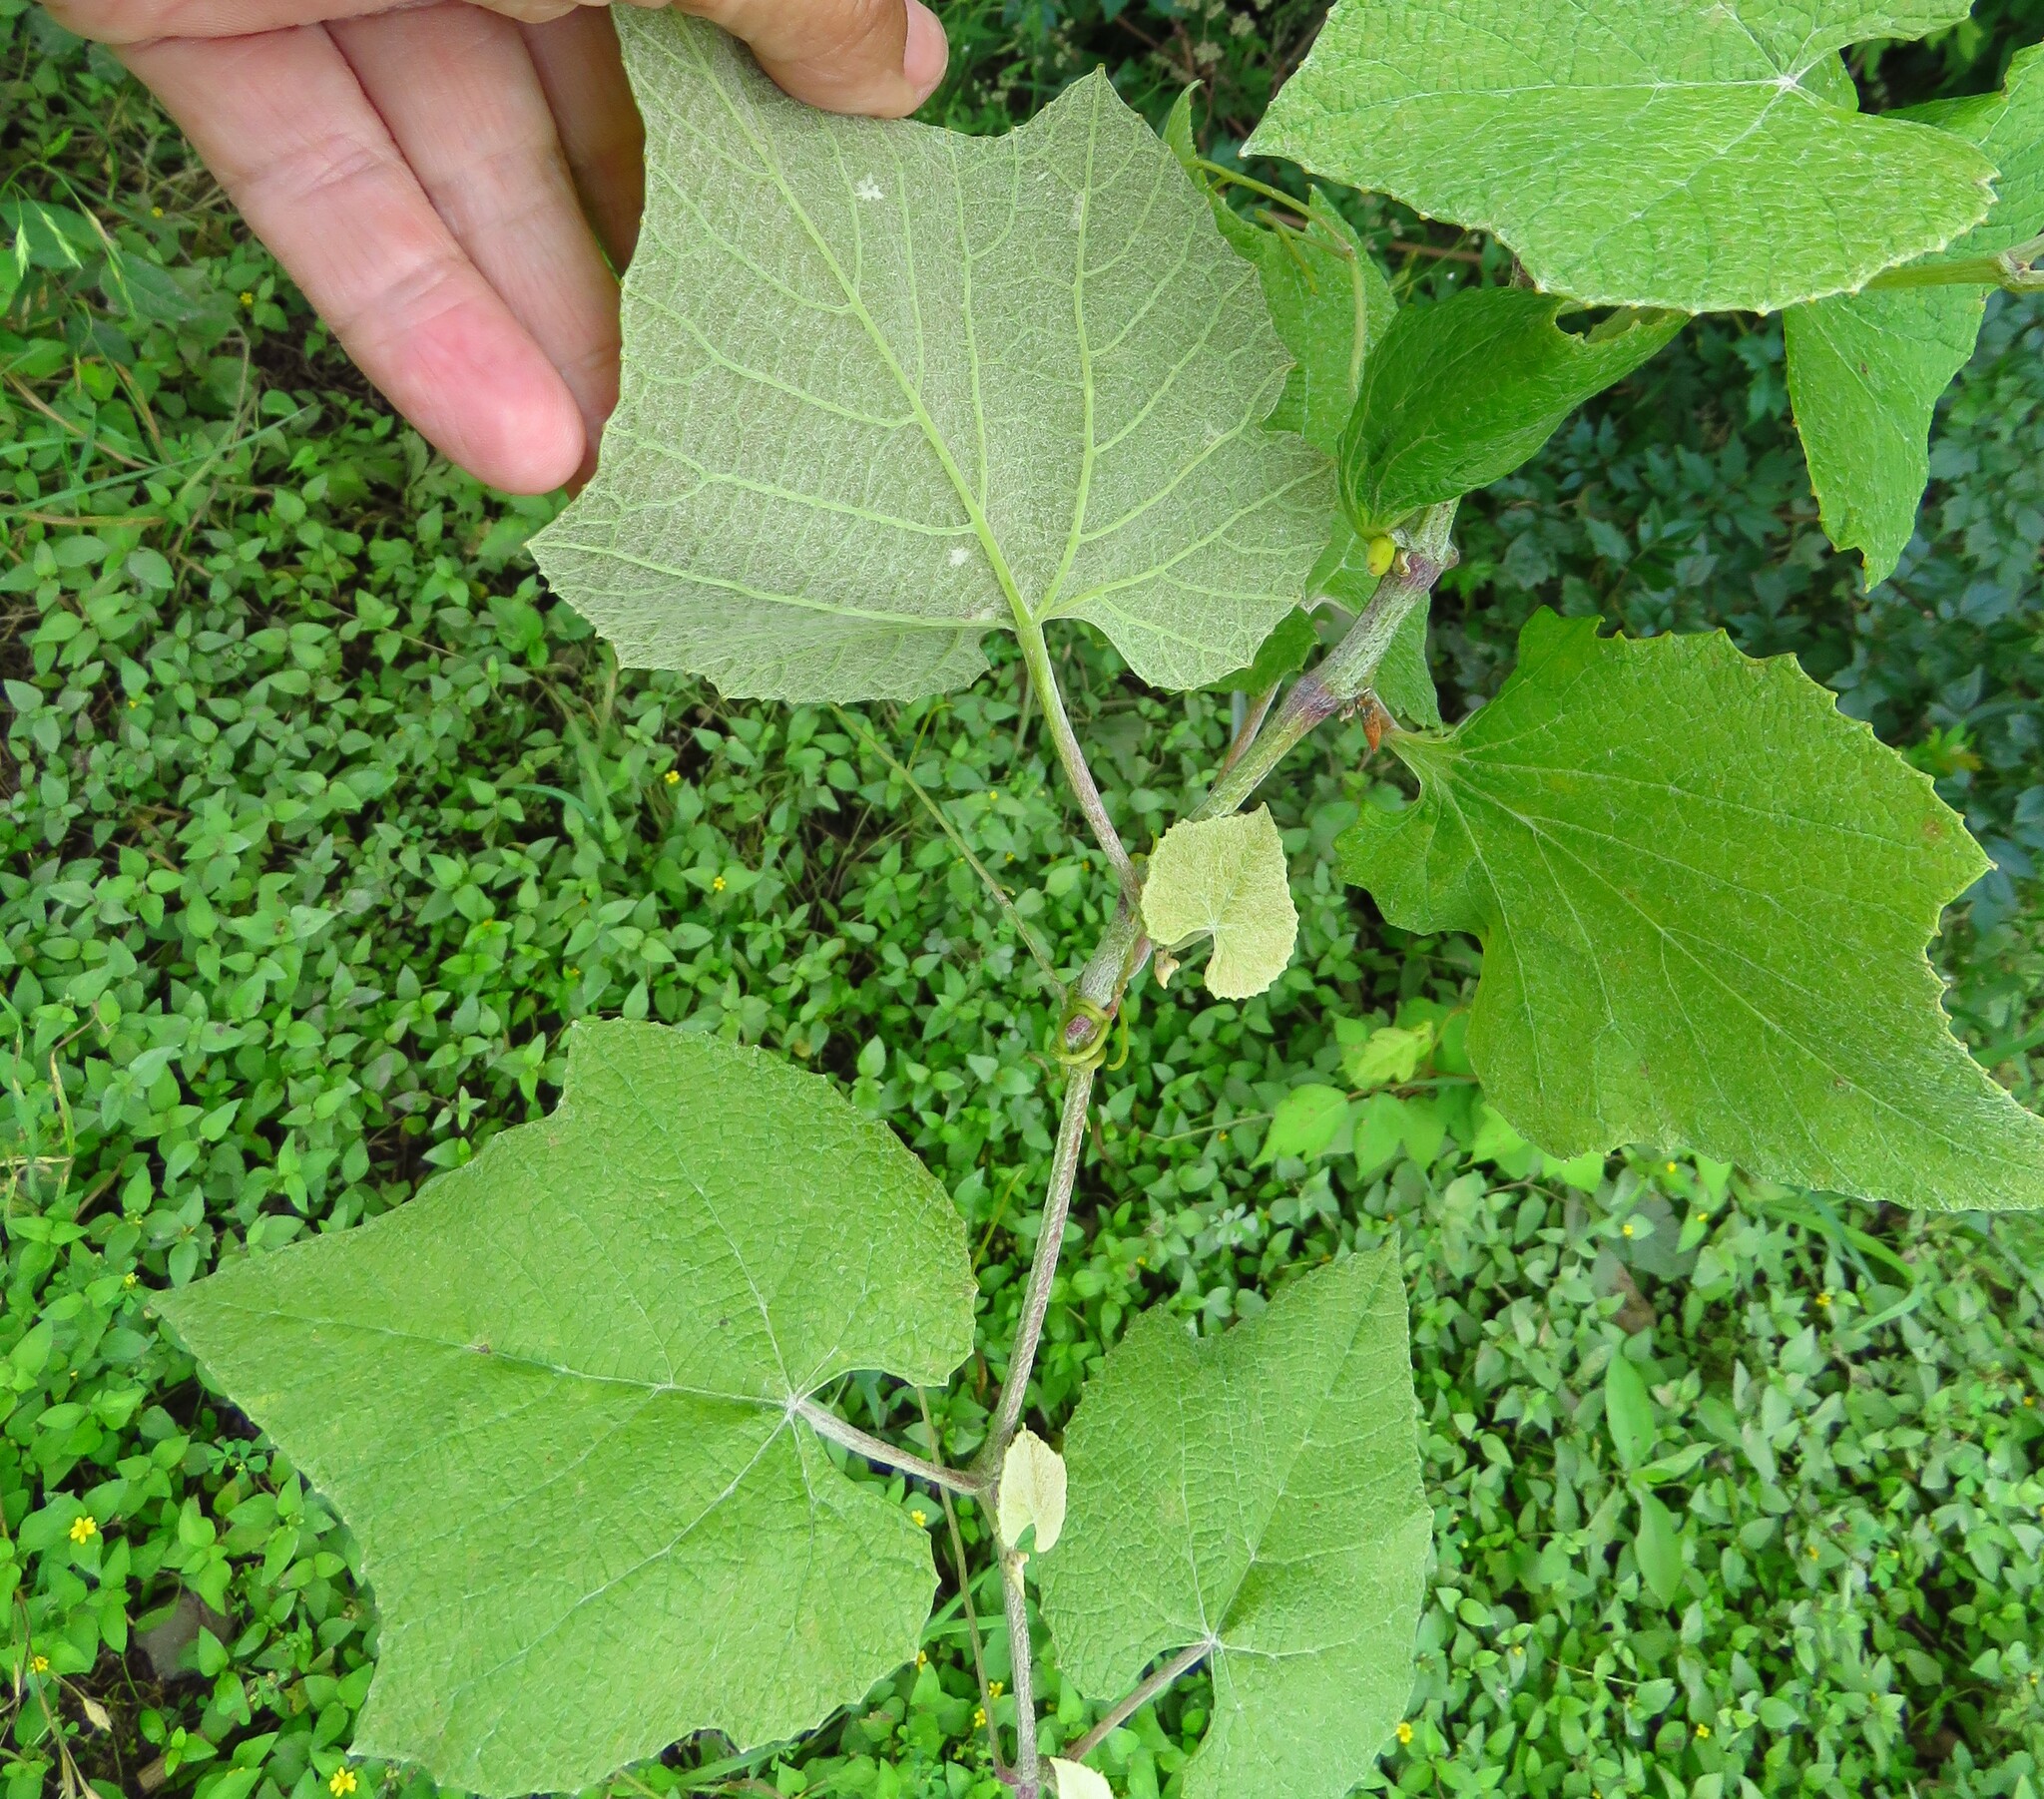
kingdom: Plantae
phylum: Tracheophyta
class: Magnoliopsida
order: Vitales
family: Vitaceae
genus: Vitis
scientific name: Vitis mustangensis
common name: Mustang grape
